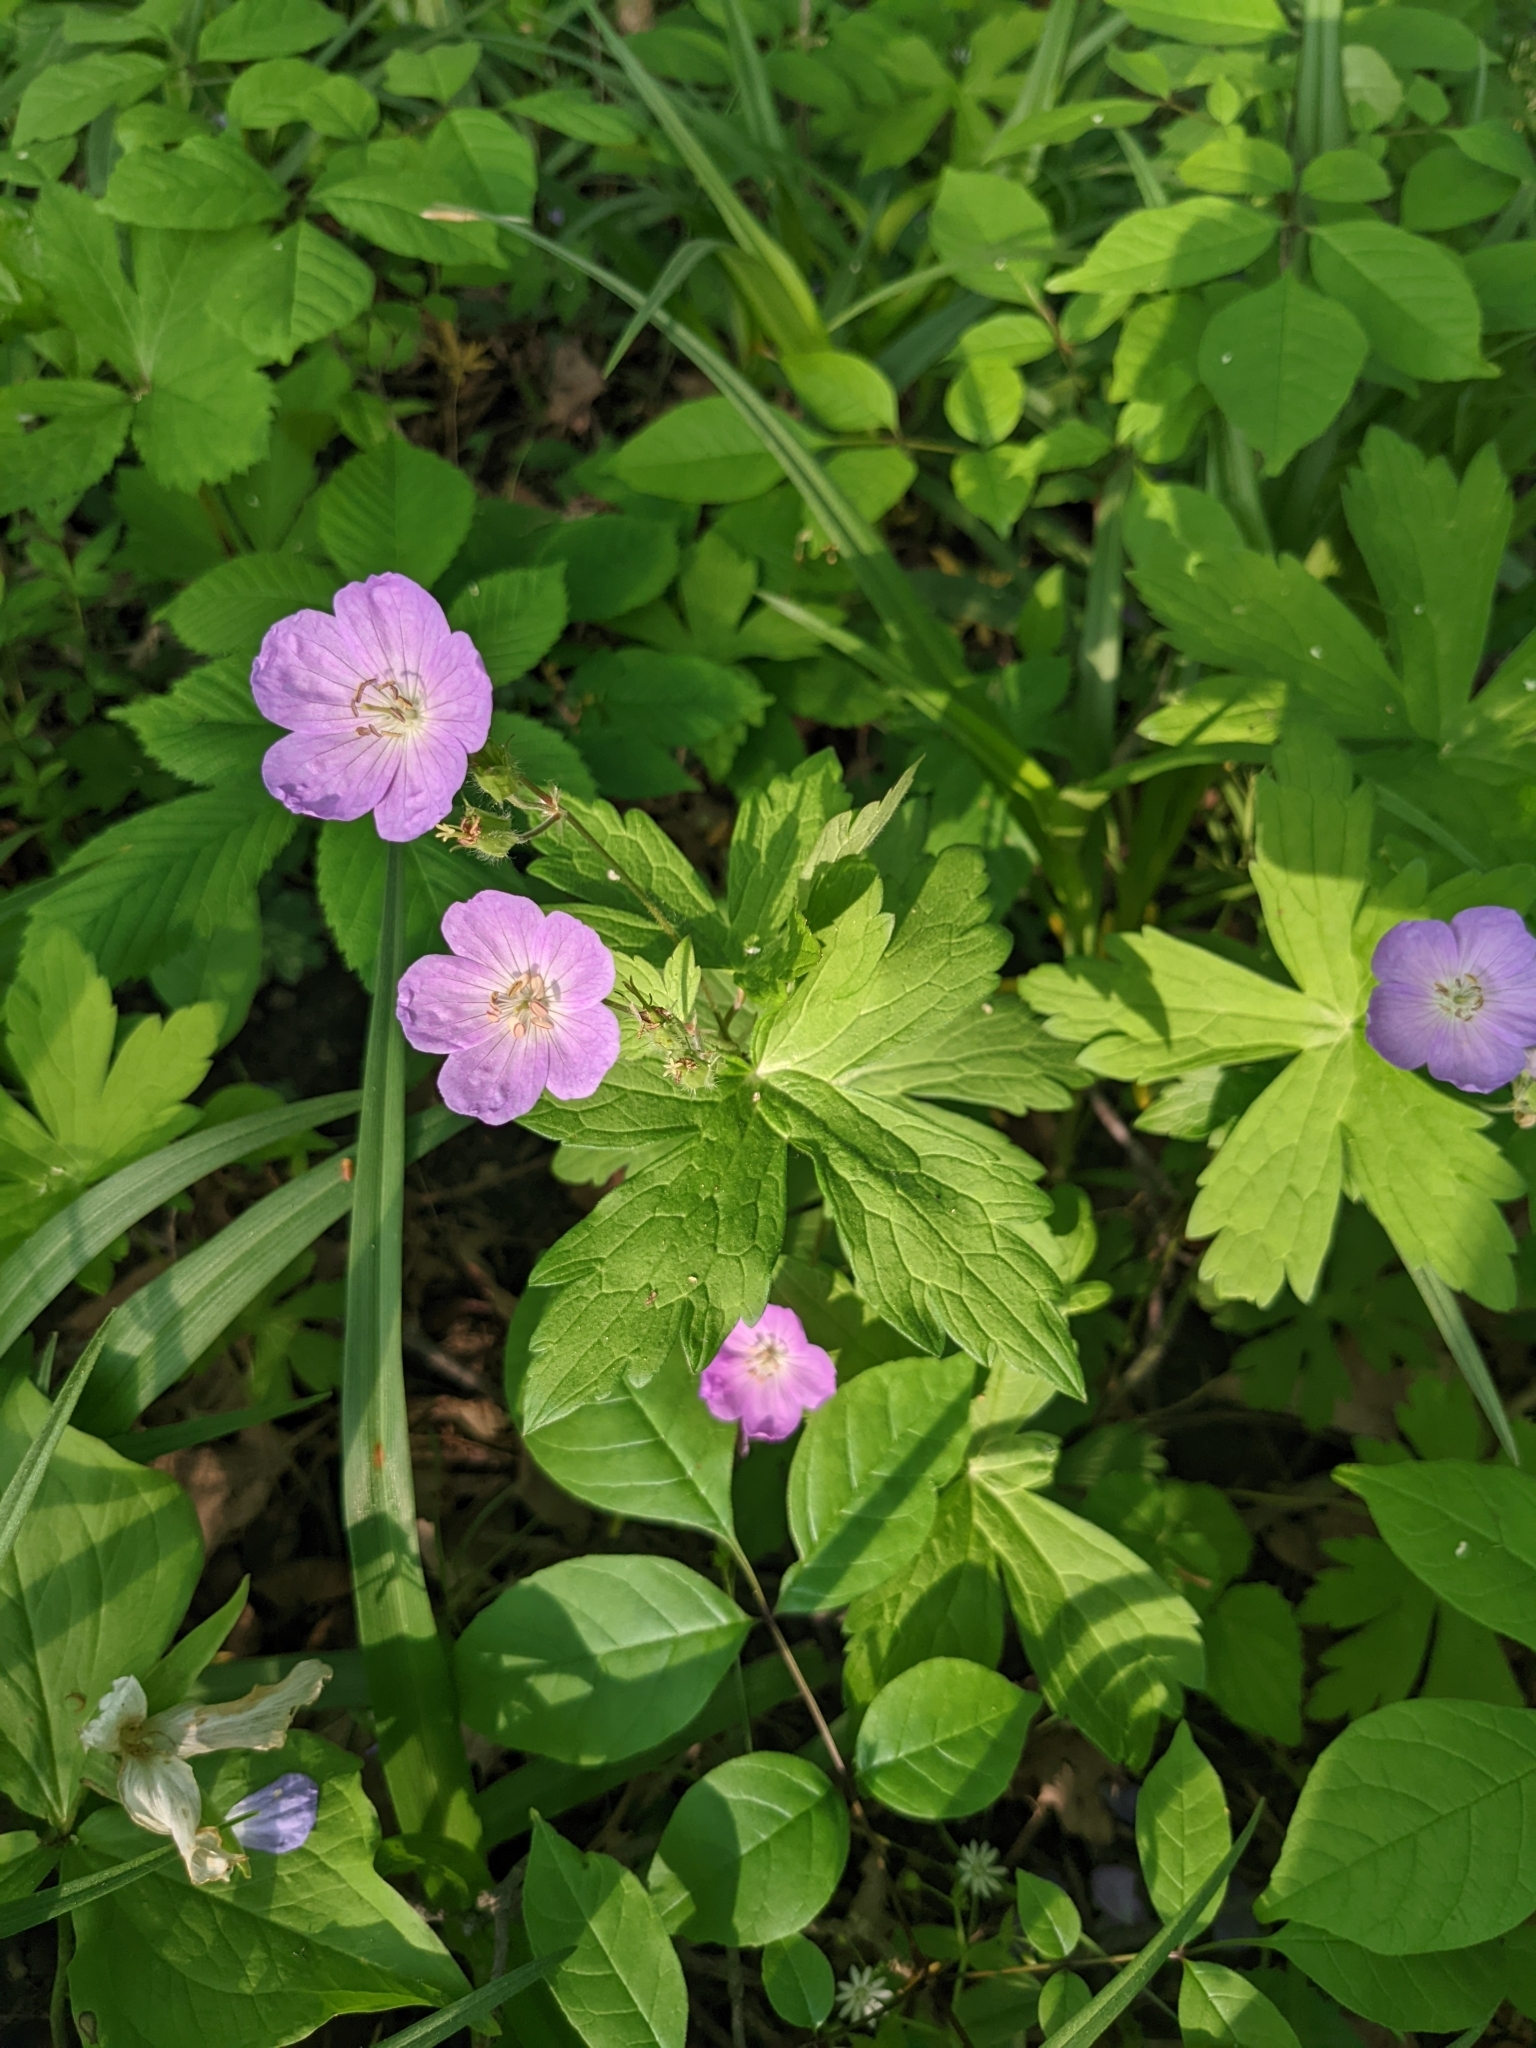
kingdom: Plantae
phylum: Tracheophyta
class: Magnoliopsida
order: Geraniales
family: Geraniaceae
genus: Geranium
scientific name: Geranium maculatum
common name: Spotted geranium
